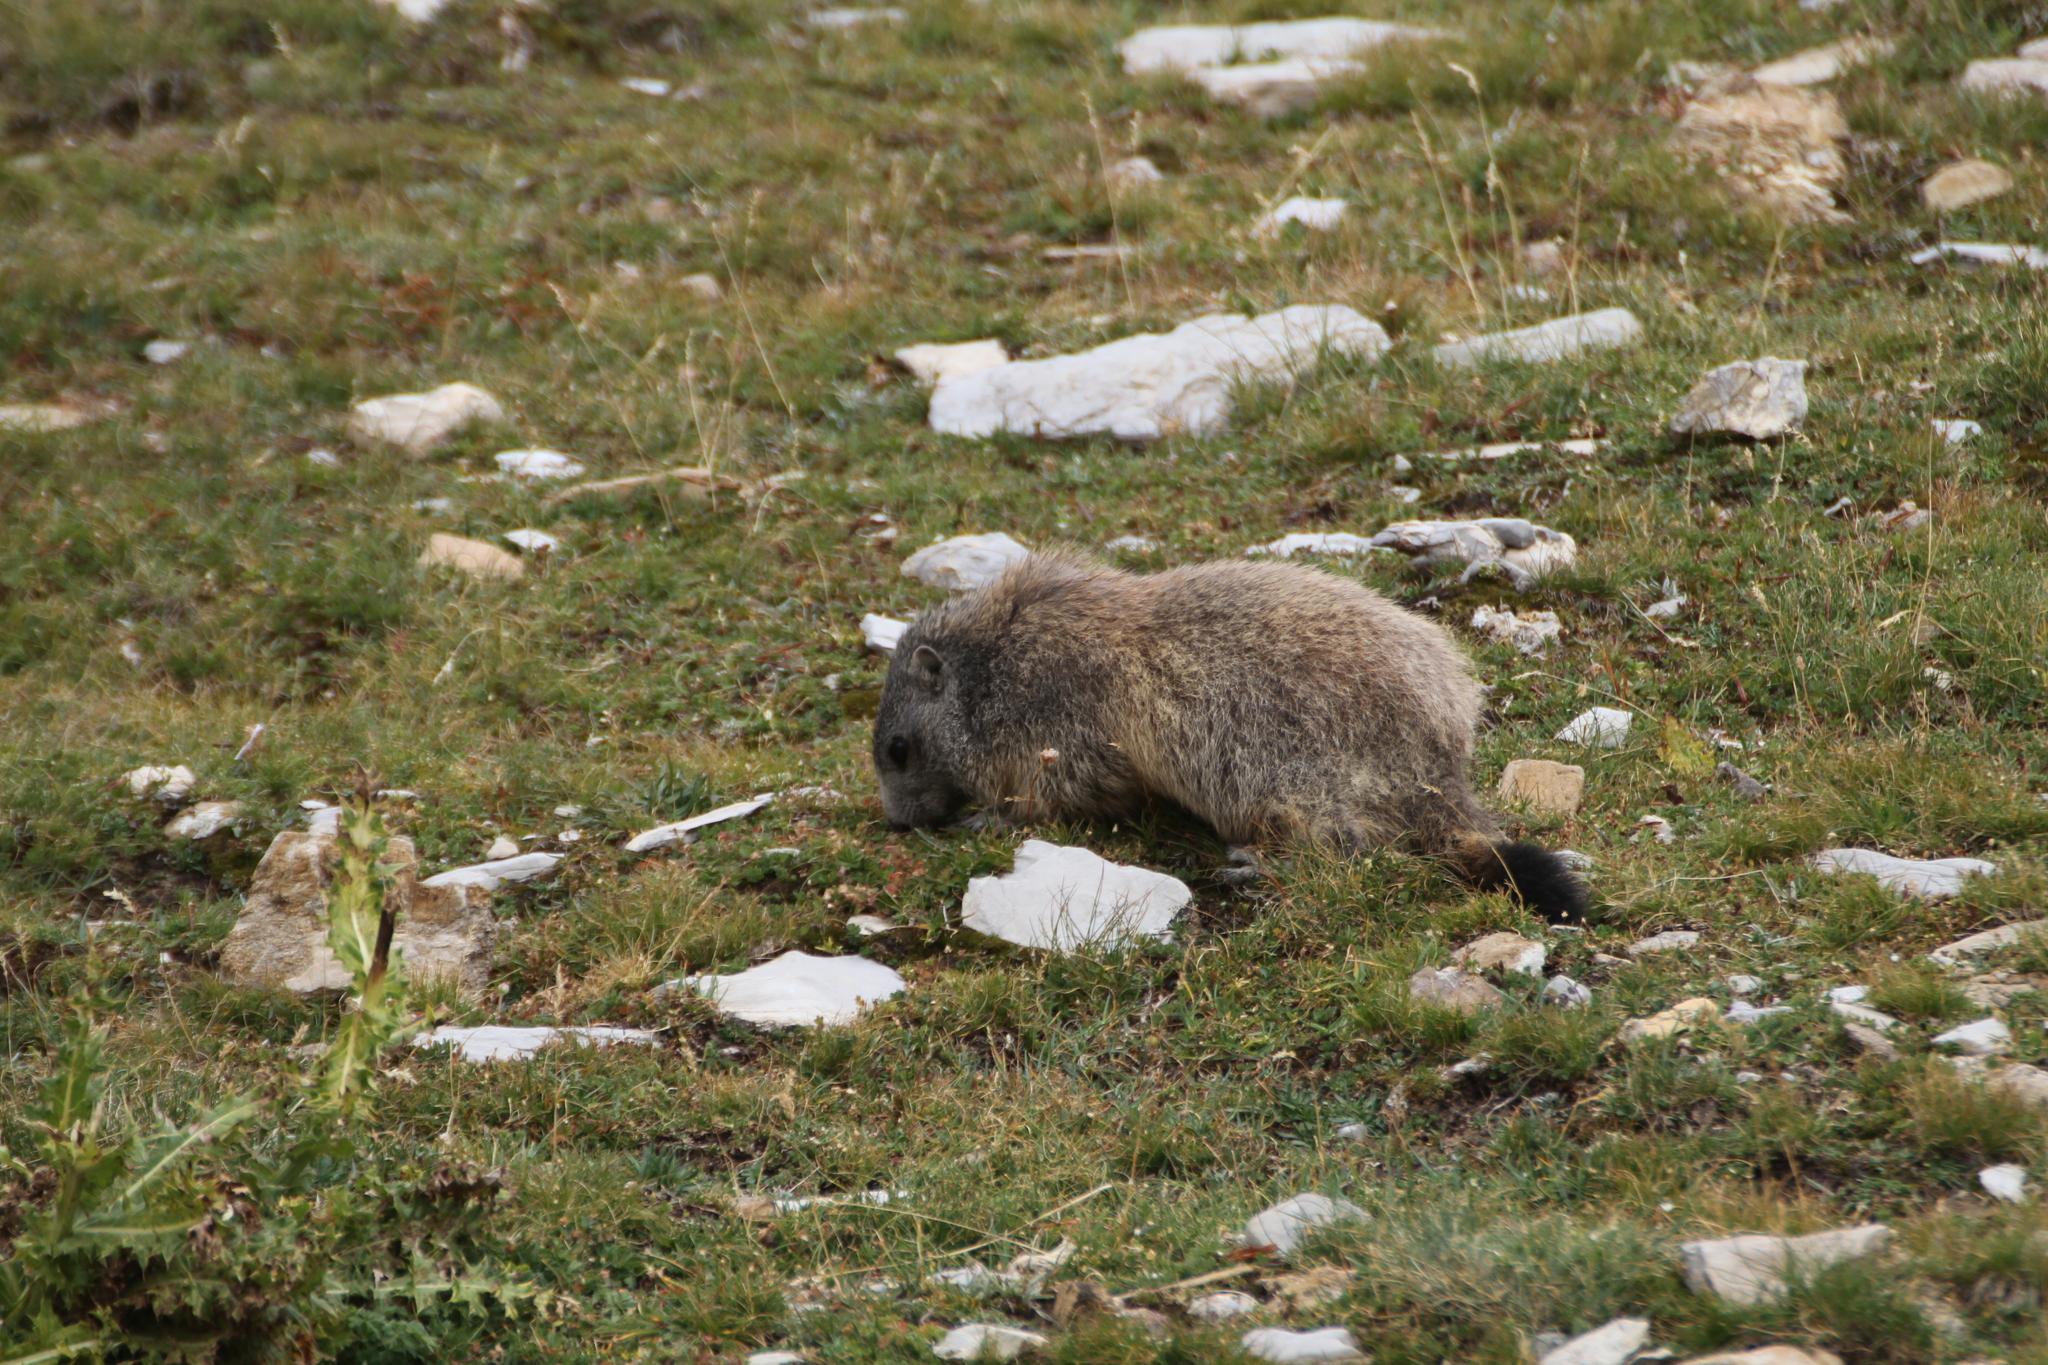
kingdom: Animalia
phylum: Chordata
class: Mammalia
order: Rodentia
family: Sciuridae
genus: Marmota
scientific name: Marmota marmota
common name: Alpine marmot
